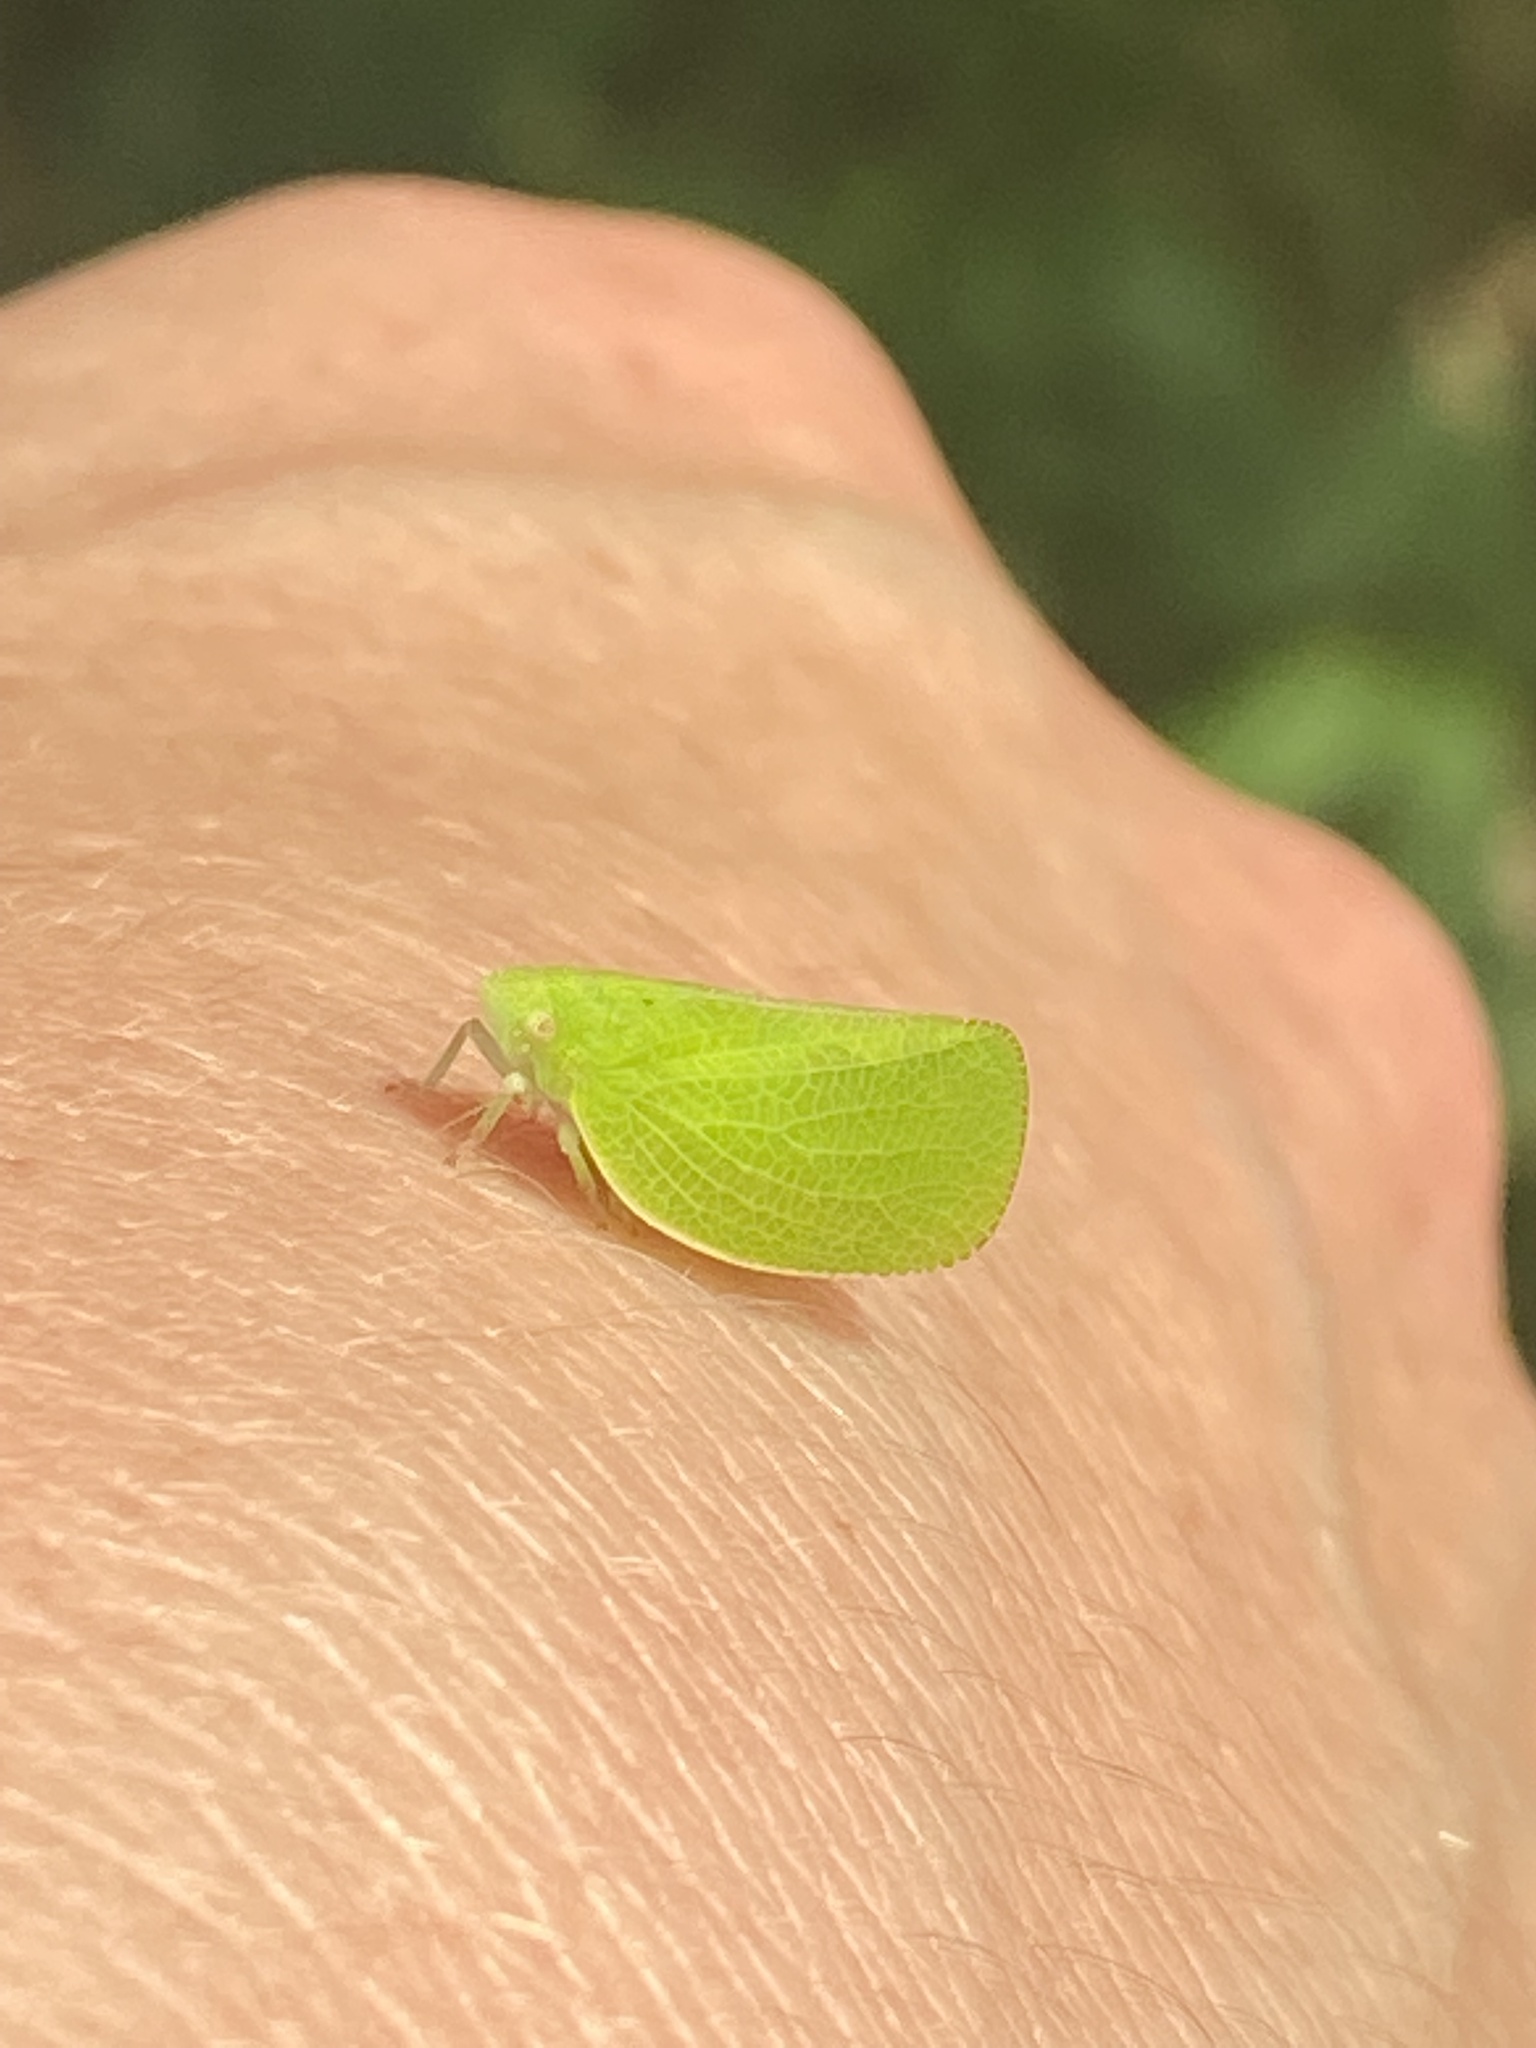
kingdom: Animalia
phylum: Arthropoda
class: Insecta
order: Hemiptera
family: Acanaloniidae
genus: Acanalonia
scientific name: Acanalonia conica
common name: Green cone-headed planthopper
